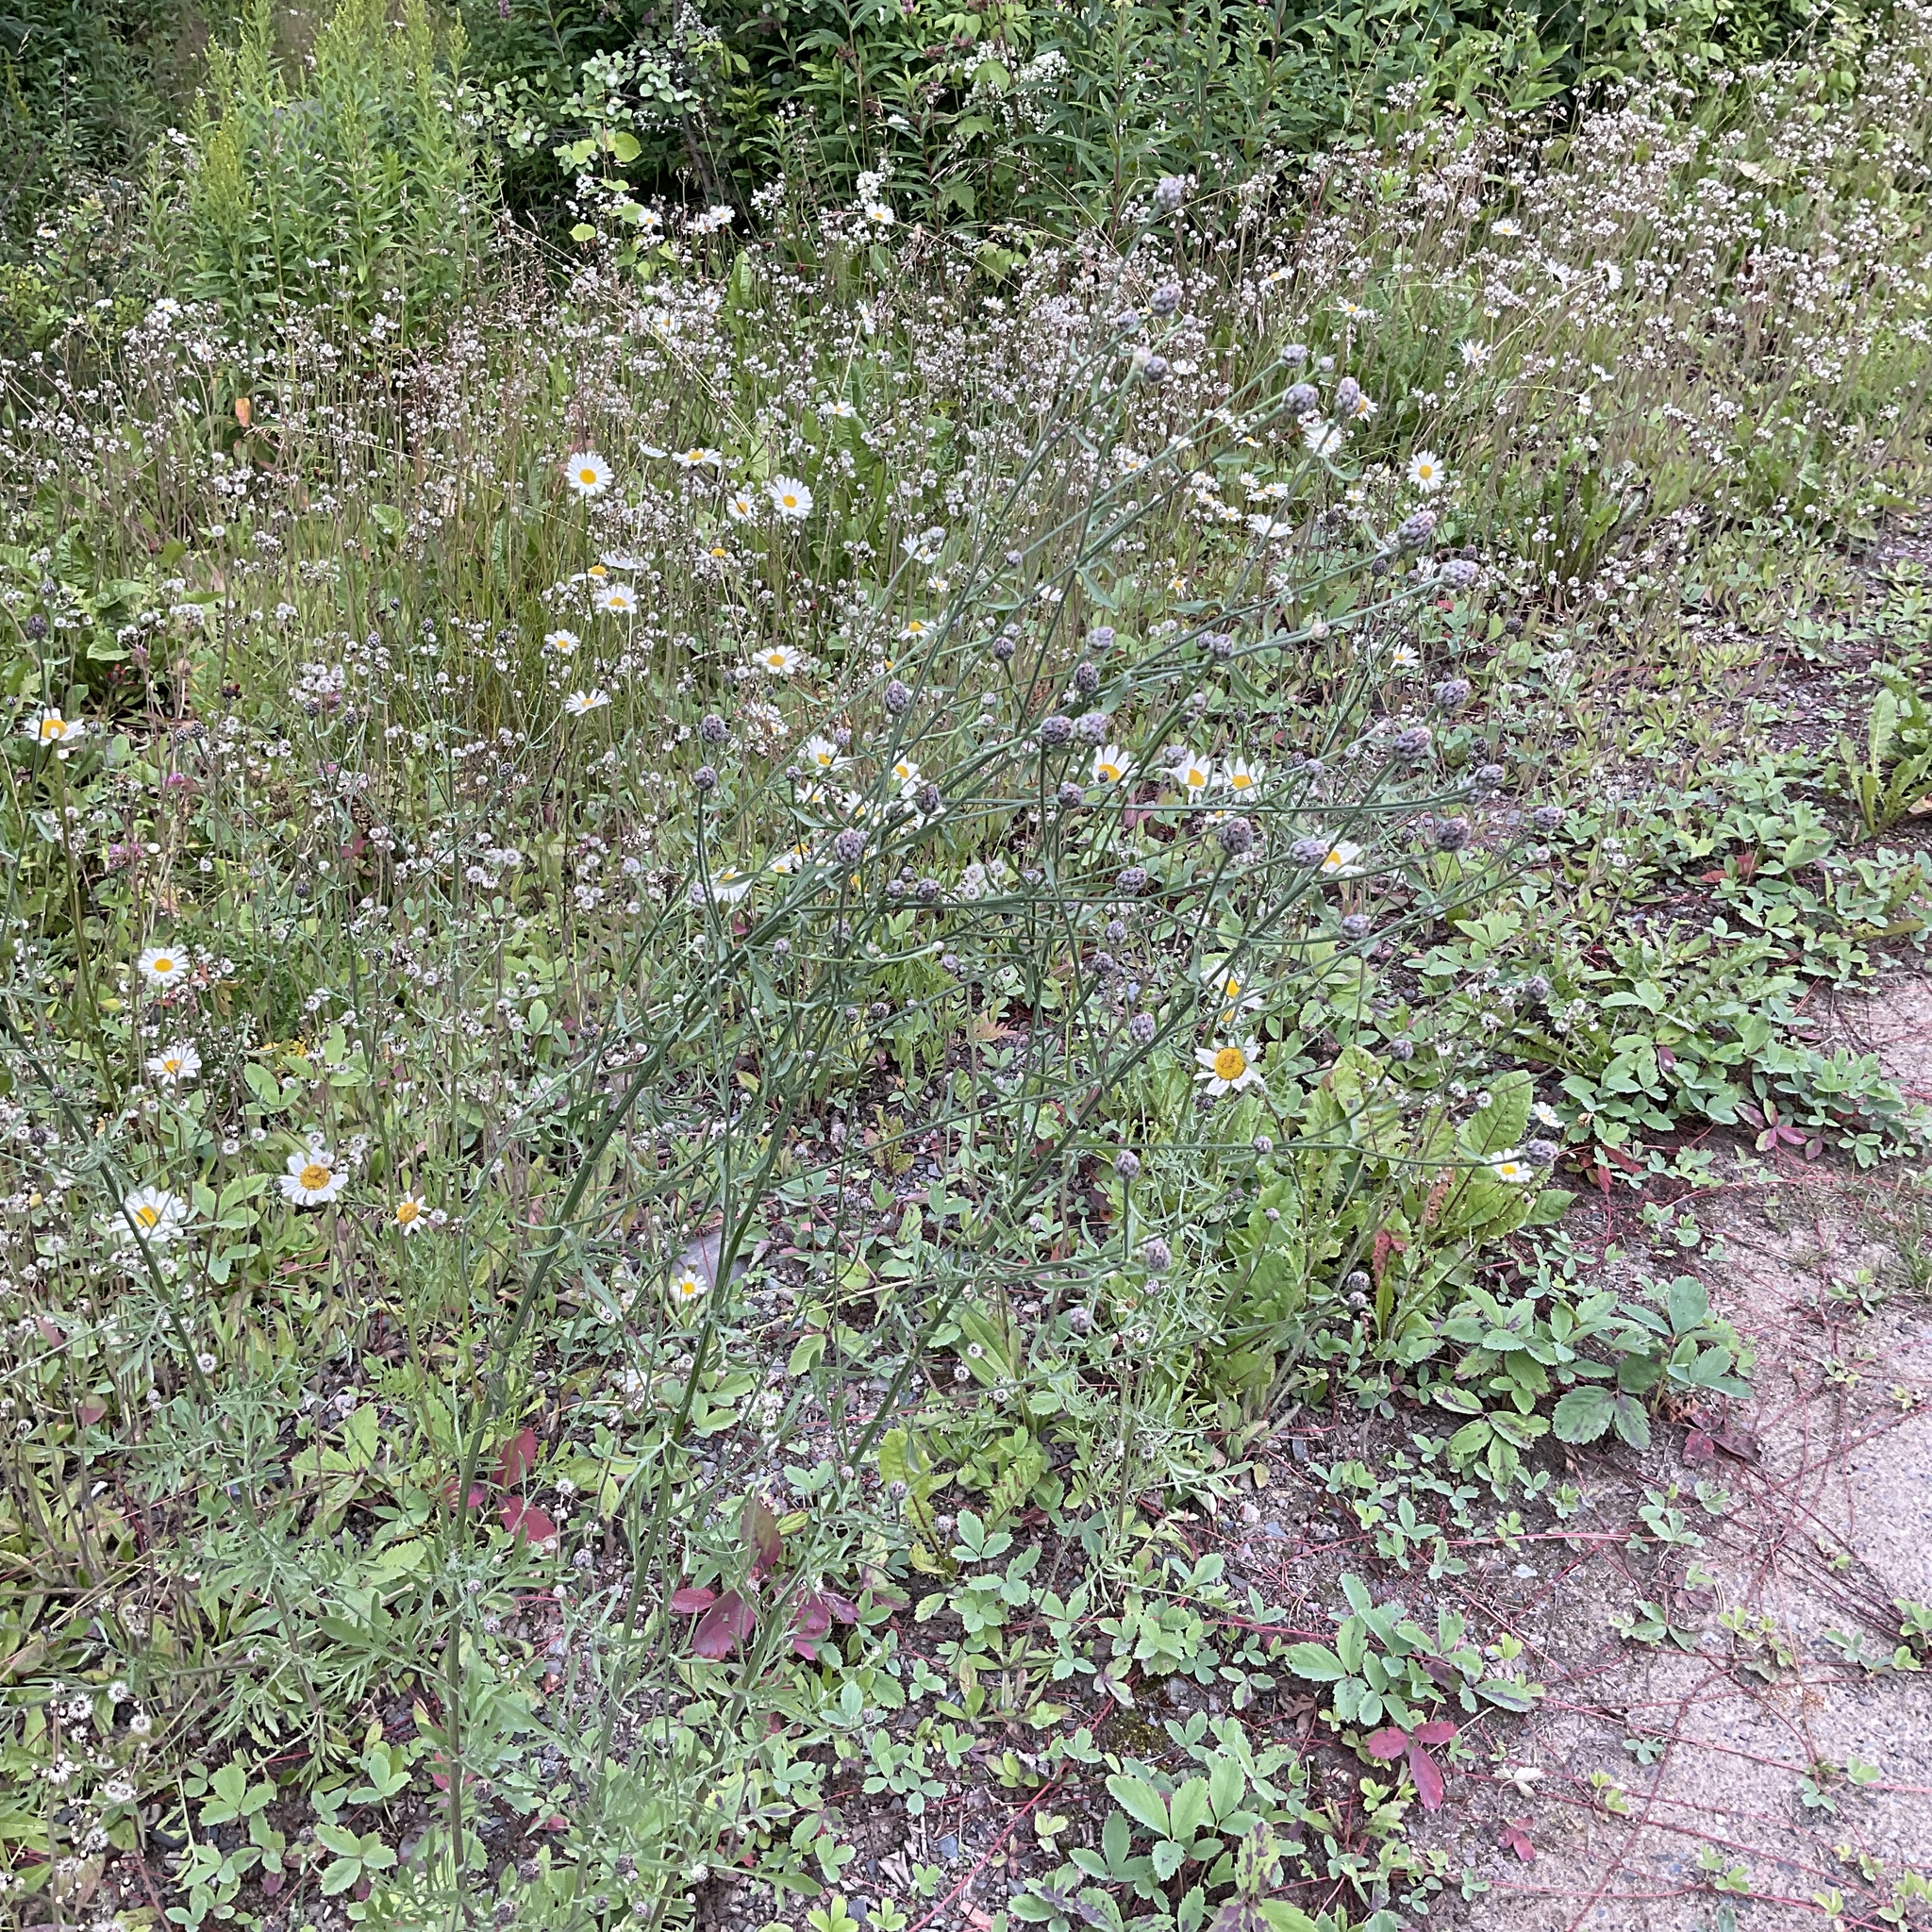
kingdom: Plantae
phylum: Tracheophyta
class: Magnoliopsida
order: Asterales
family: Asteraceae
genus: Centaurea
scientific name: Centaurea stoebe
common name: Spotted knapweed
